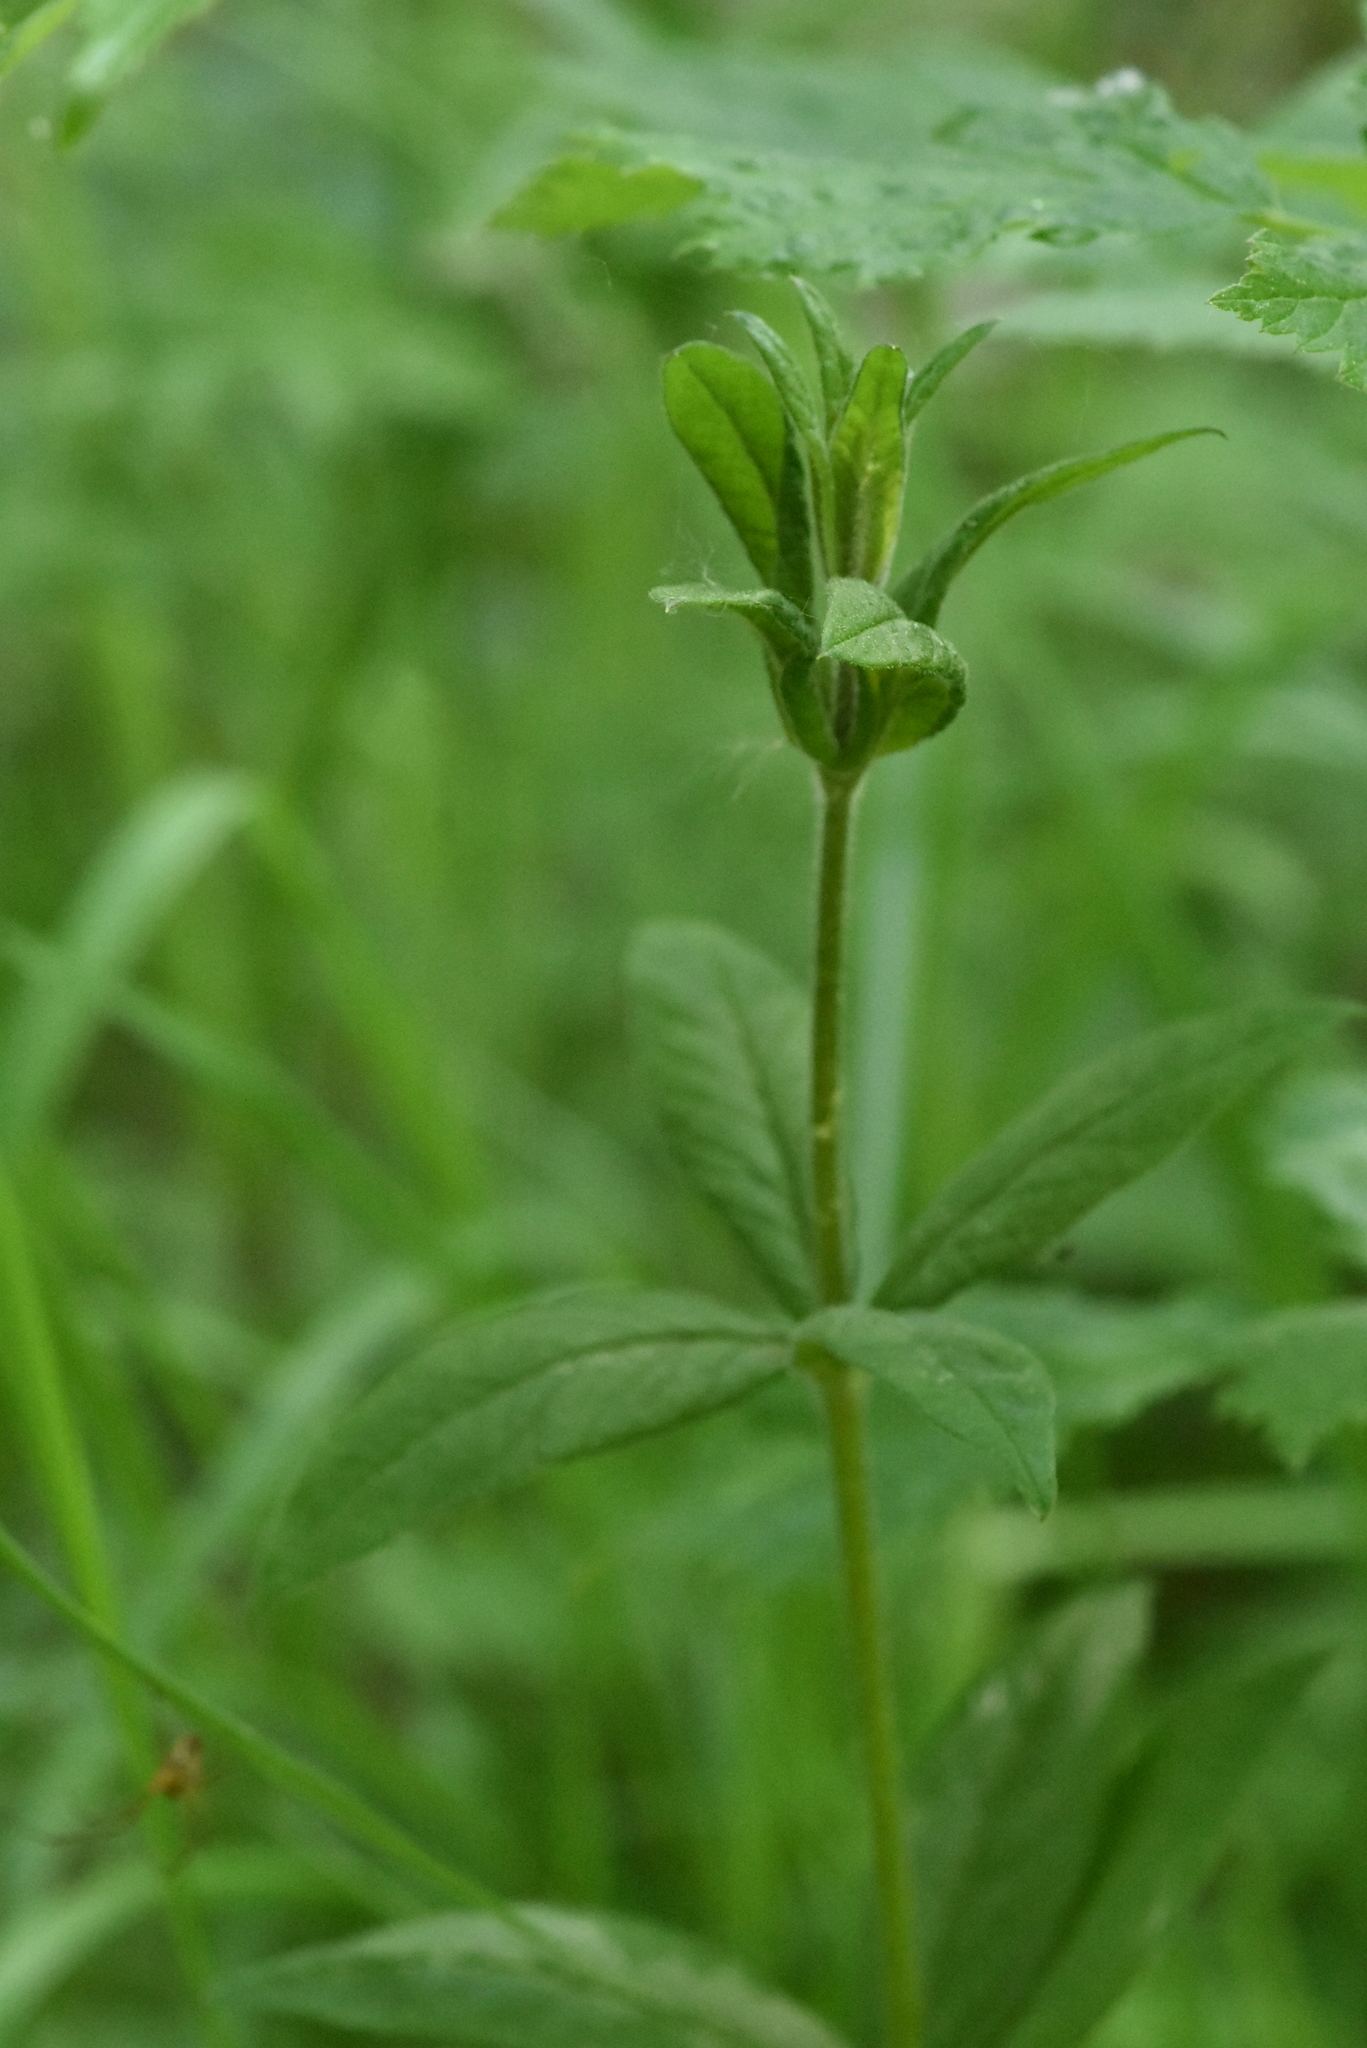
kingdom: Plantae
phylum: Tracheophyta
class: Magnoliopsida
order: Ericales
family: Primulaceae
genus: Lysimachia
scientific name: Lysimachia vulgaris
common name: Yellow loosestrife
